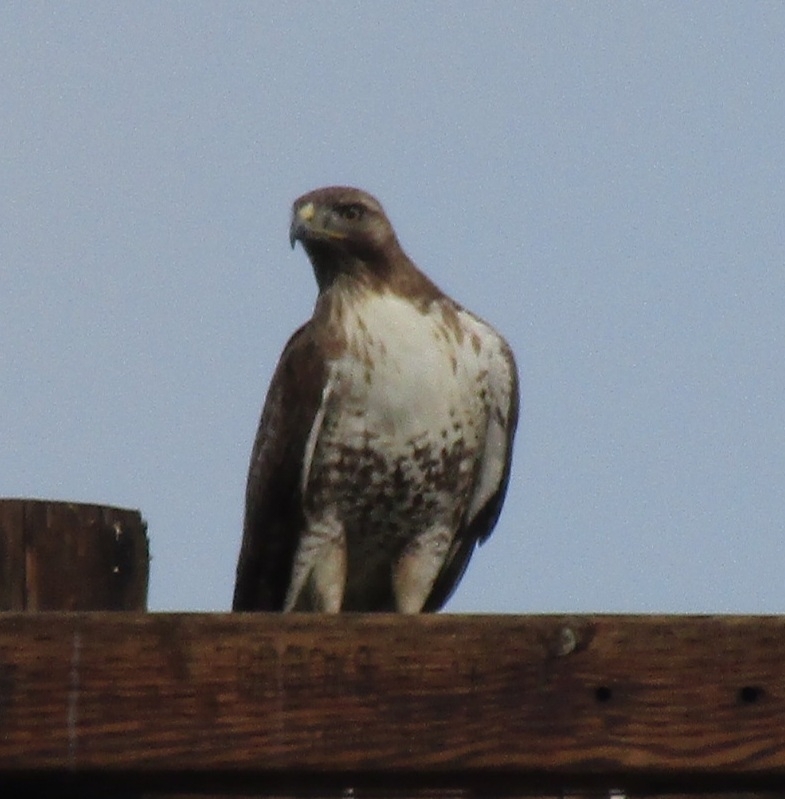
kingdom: Animalia
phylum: Chordata
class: Aves
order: Accipitriformes
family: Accipitridae
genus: Buteo
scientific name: Buteo jamaicensis
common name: Red-tailed hawk
